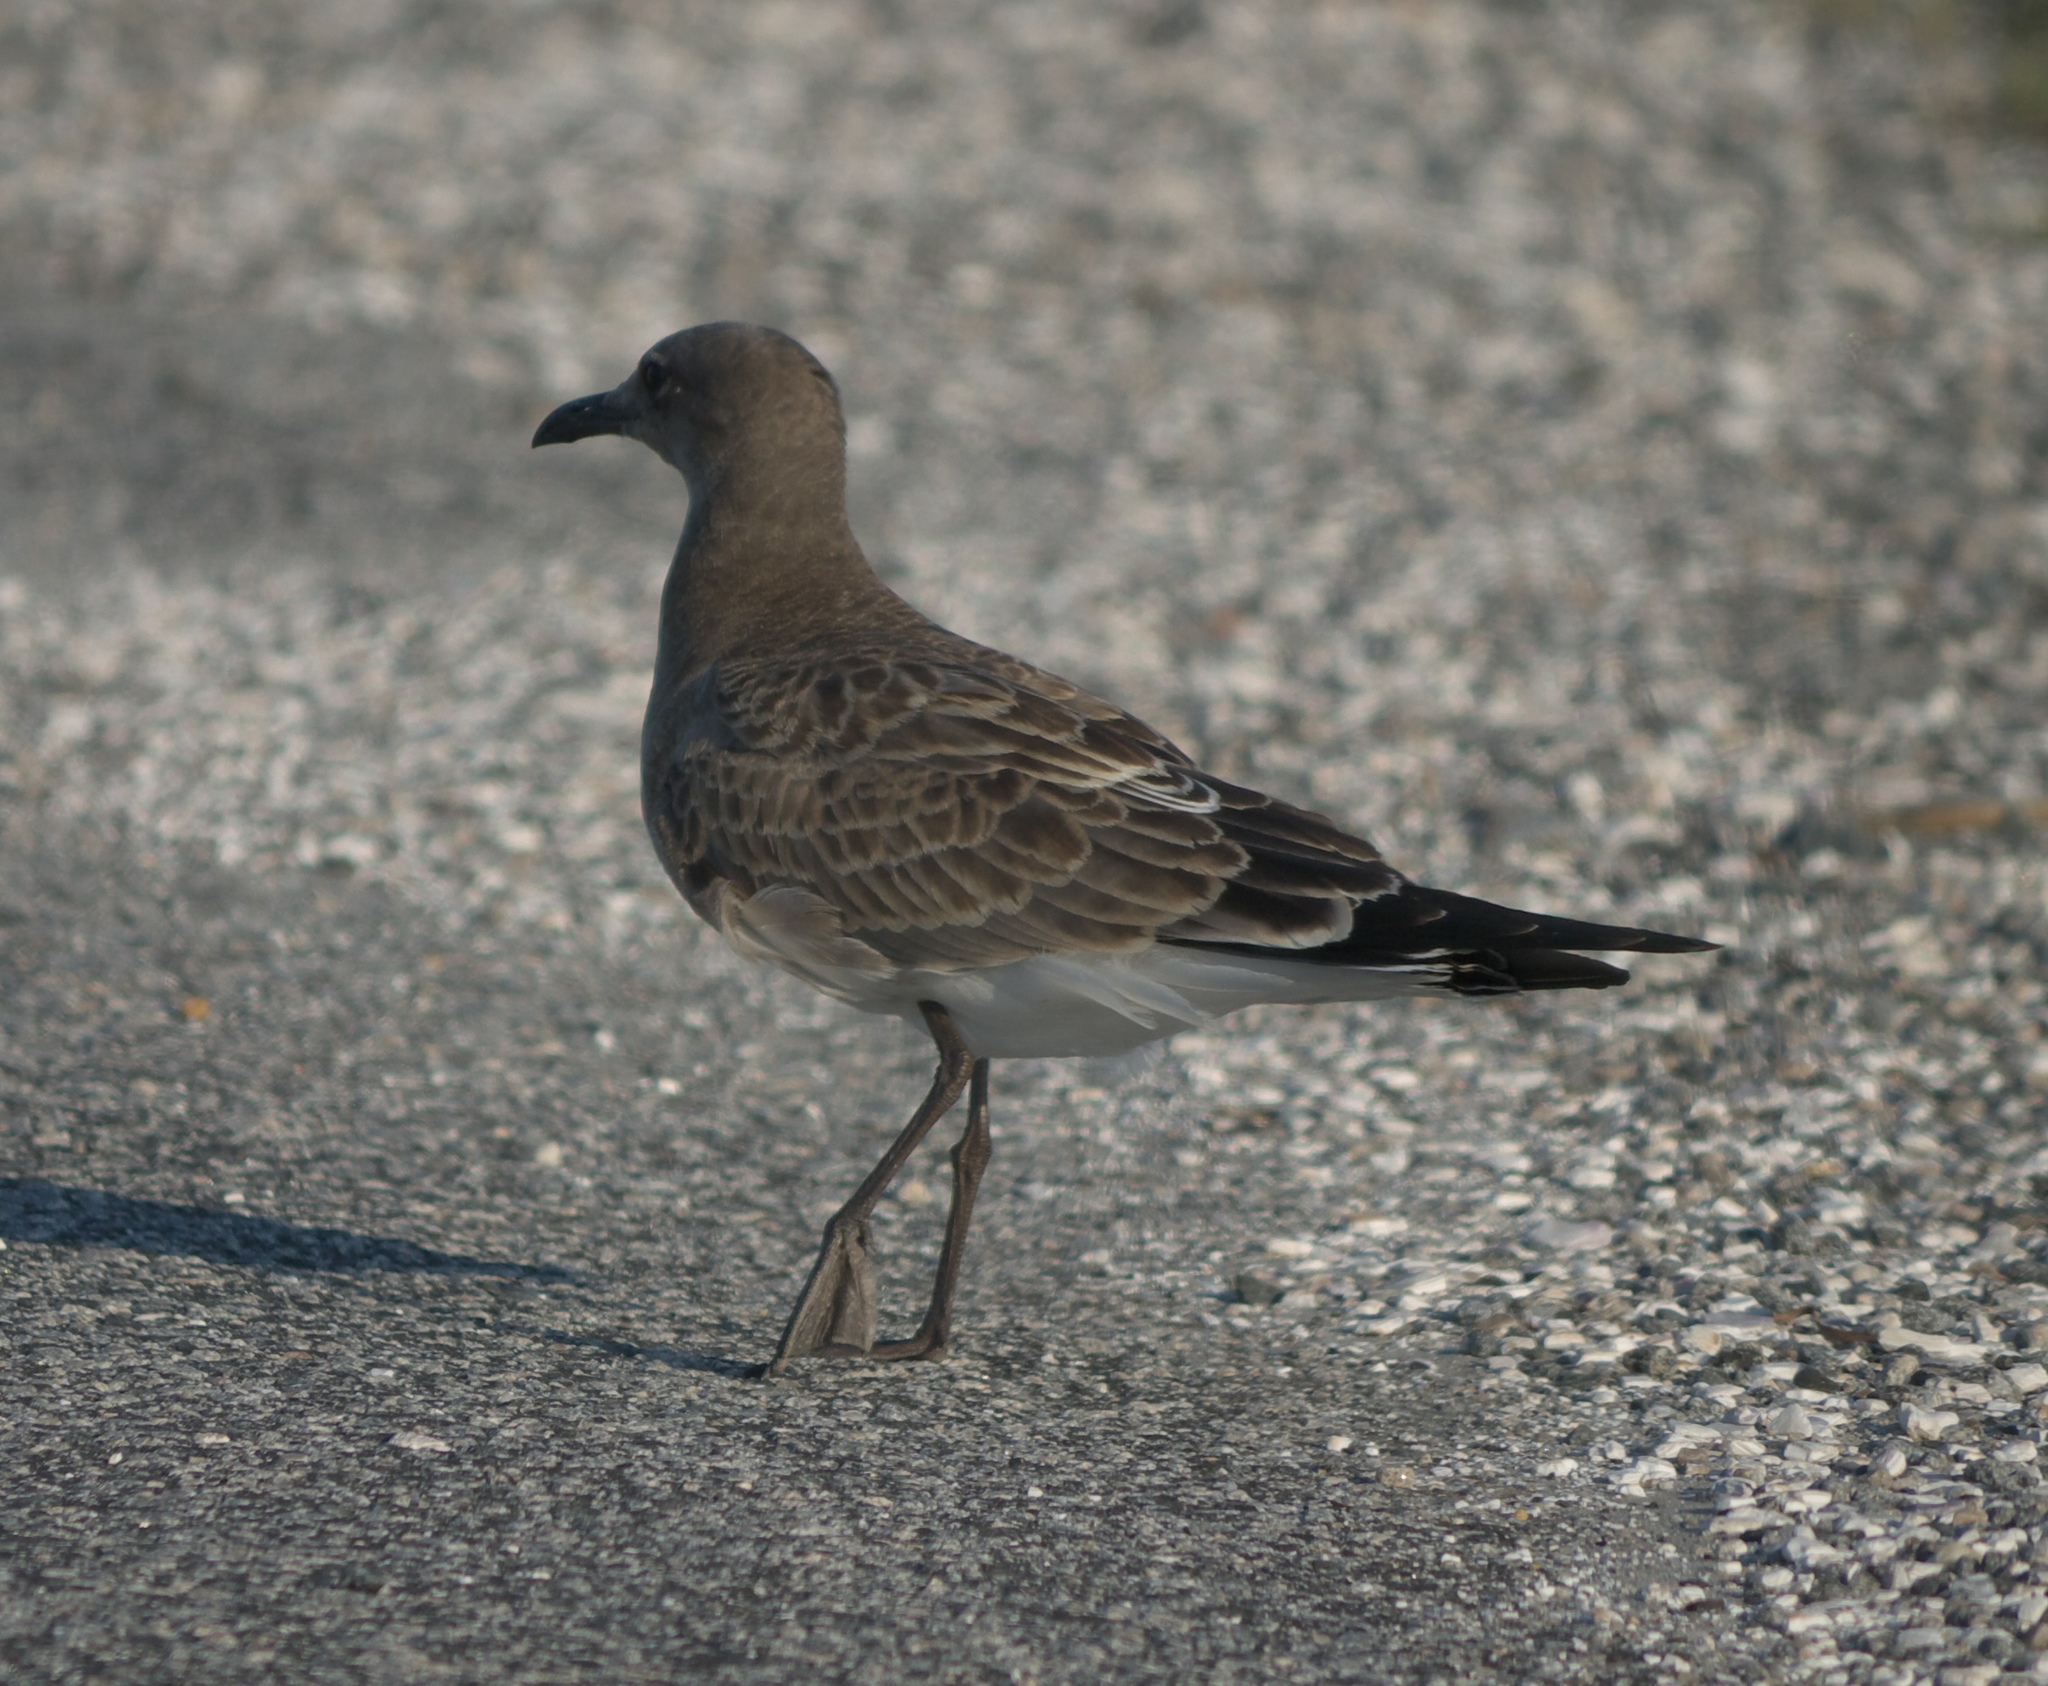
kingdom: Animalia
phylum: Chordata
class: Aves
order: Charadriiformes
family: Laridae
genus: Leucophaeus
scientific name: Leucophaeus atricilla
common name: Laughing gull
